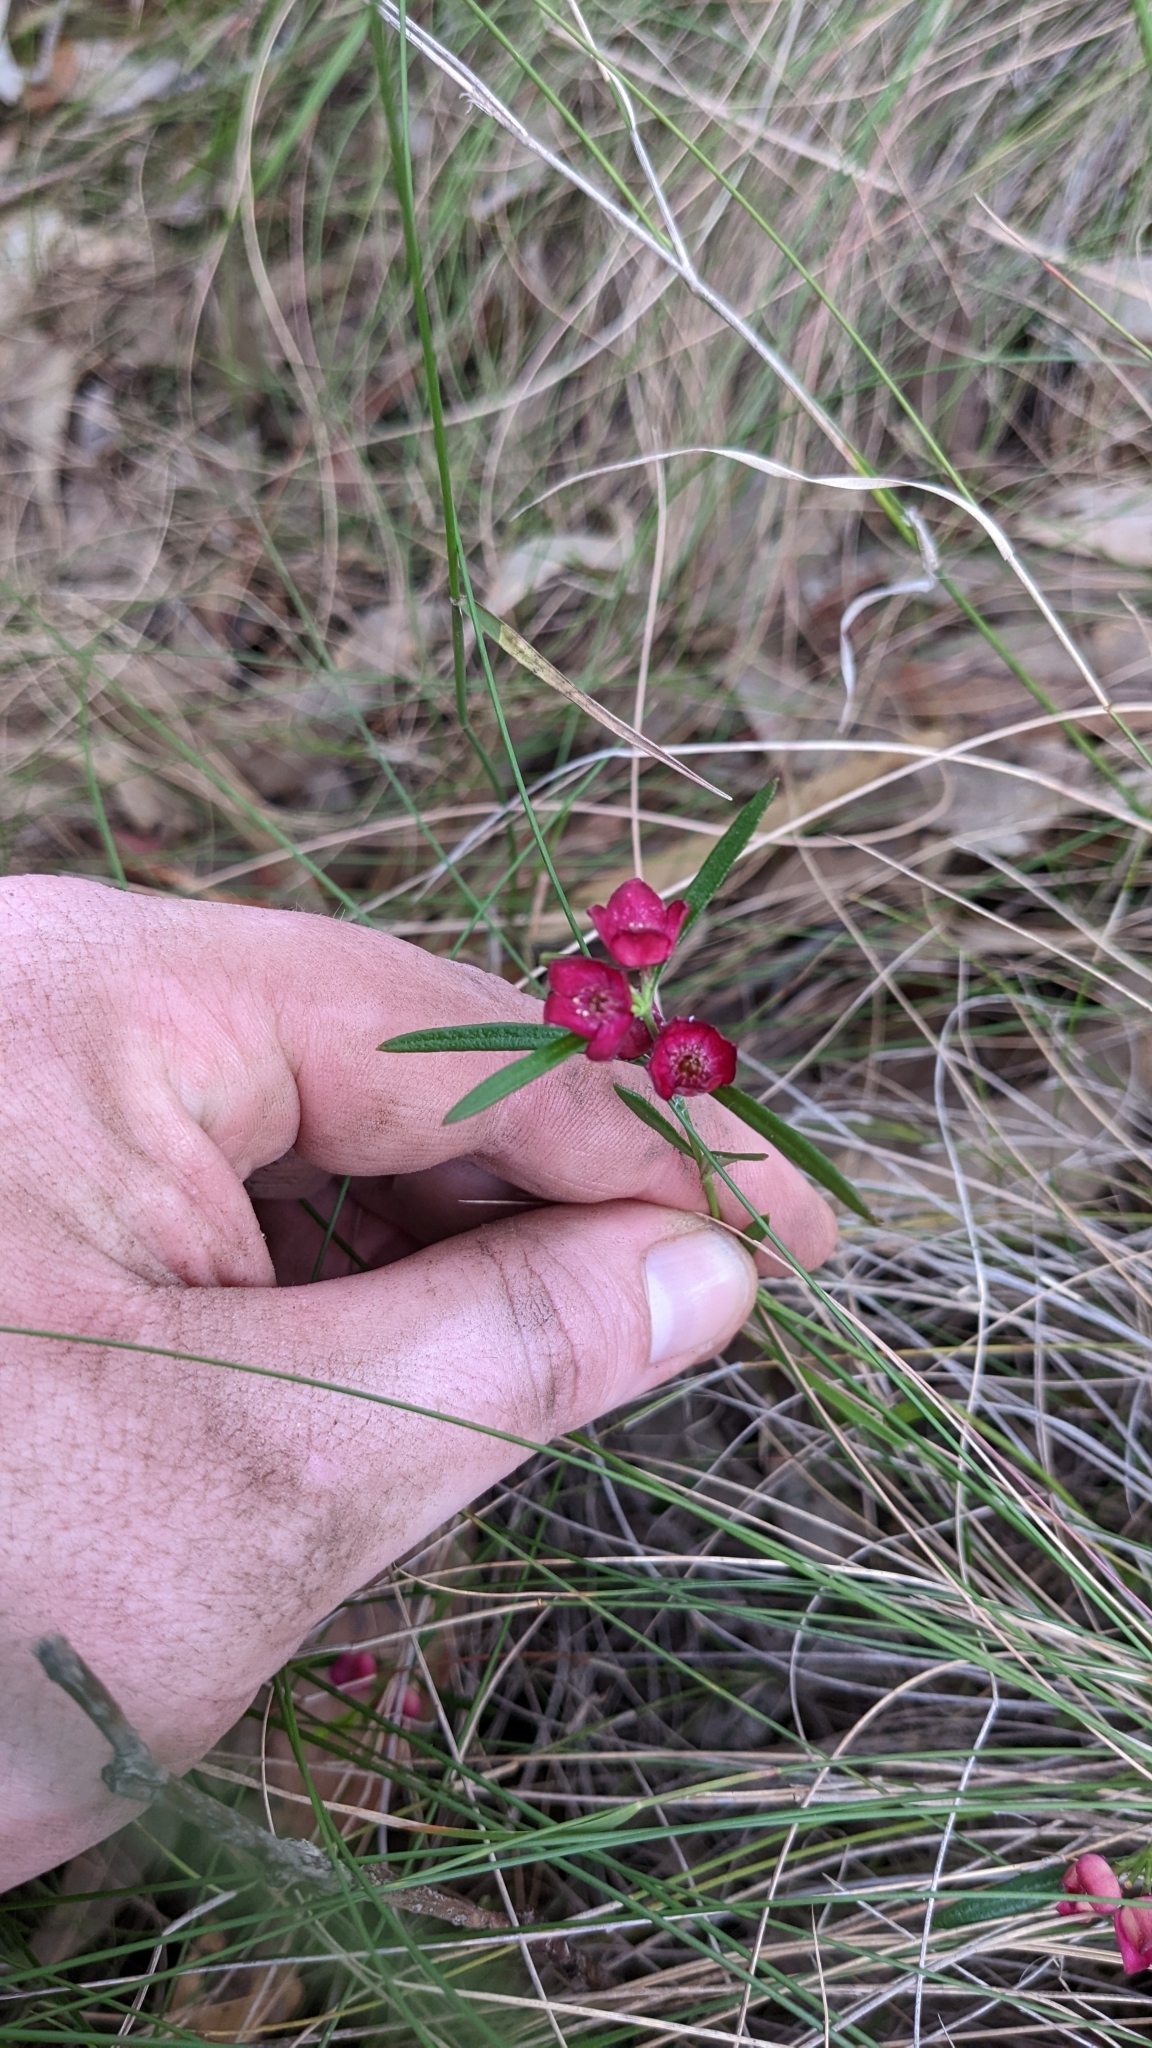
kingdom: Plantae
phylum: Tracheophyta
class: Magnoliopsida
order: Sapindales
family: Rutaceae
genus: Cyanothamnus
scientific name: Cyanothamnus polygalifolius
